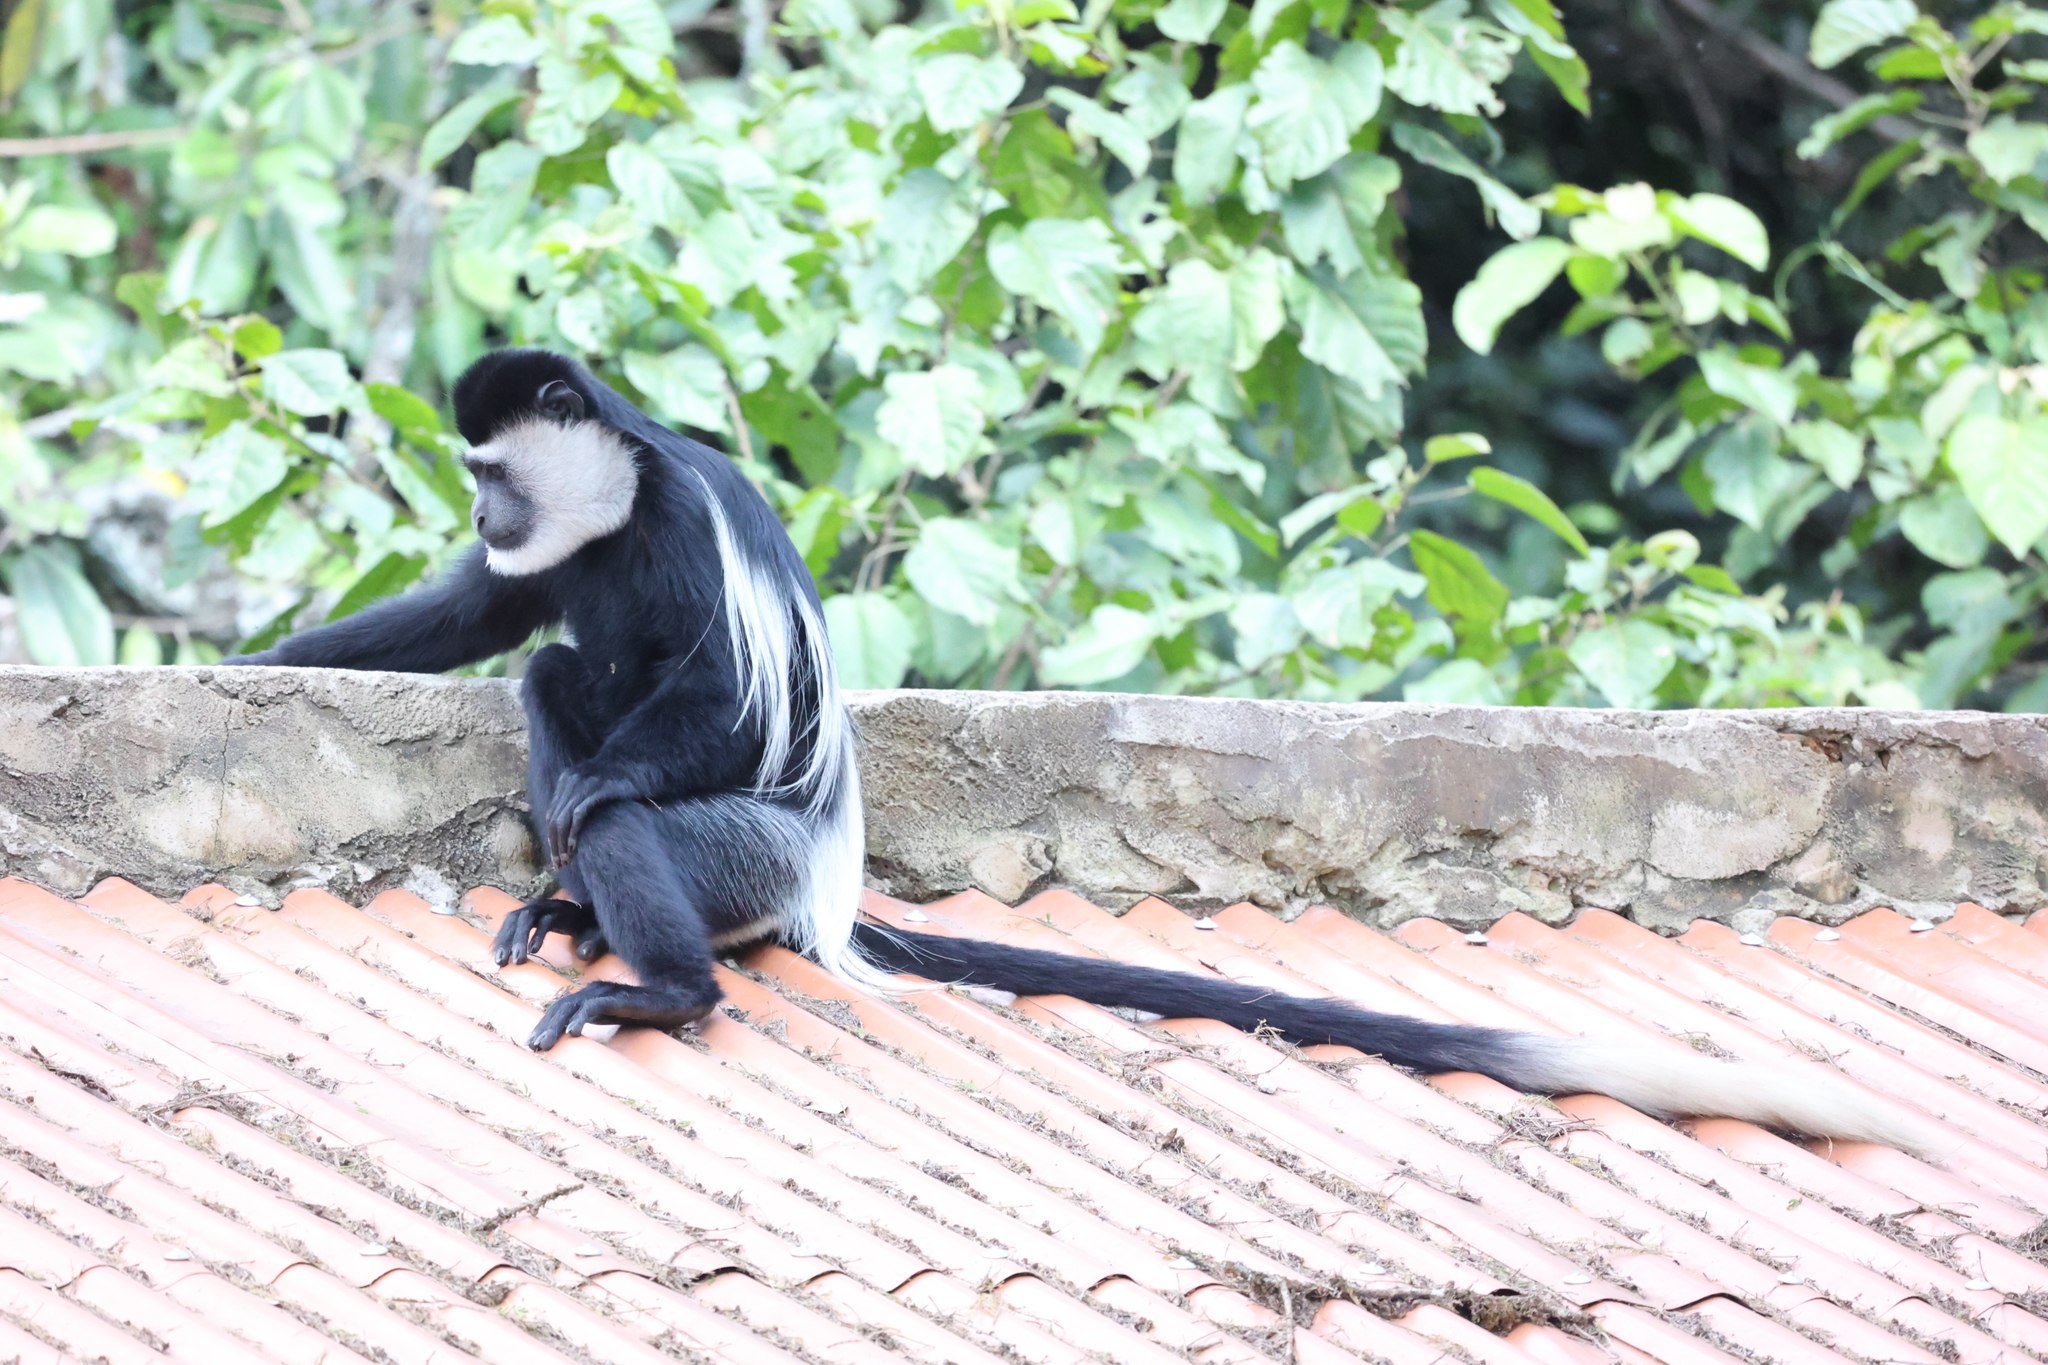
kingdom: Animalia
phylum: Chordata
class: Mammalia
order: Primates
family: Cercopithecidae
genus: Colobus
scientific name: Colobus guereza
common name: Mantled guereza
